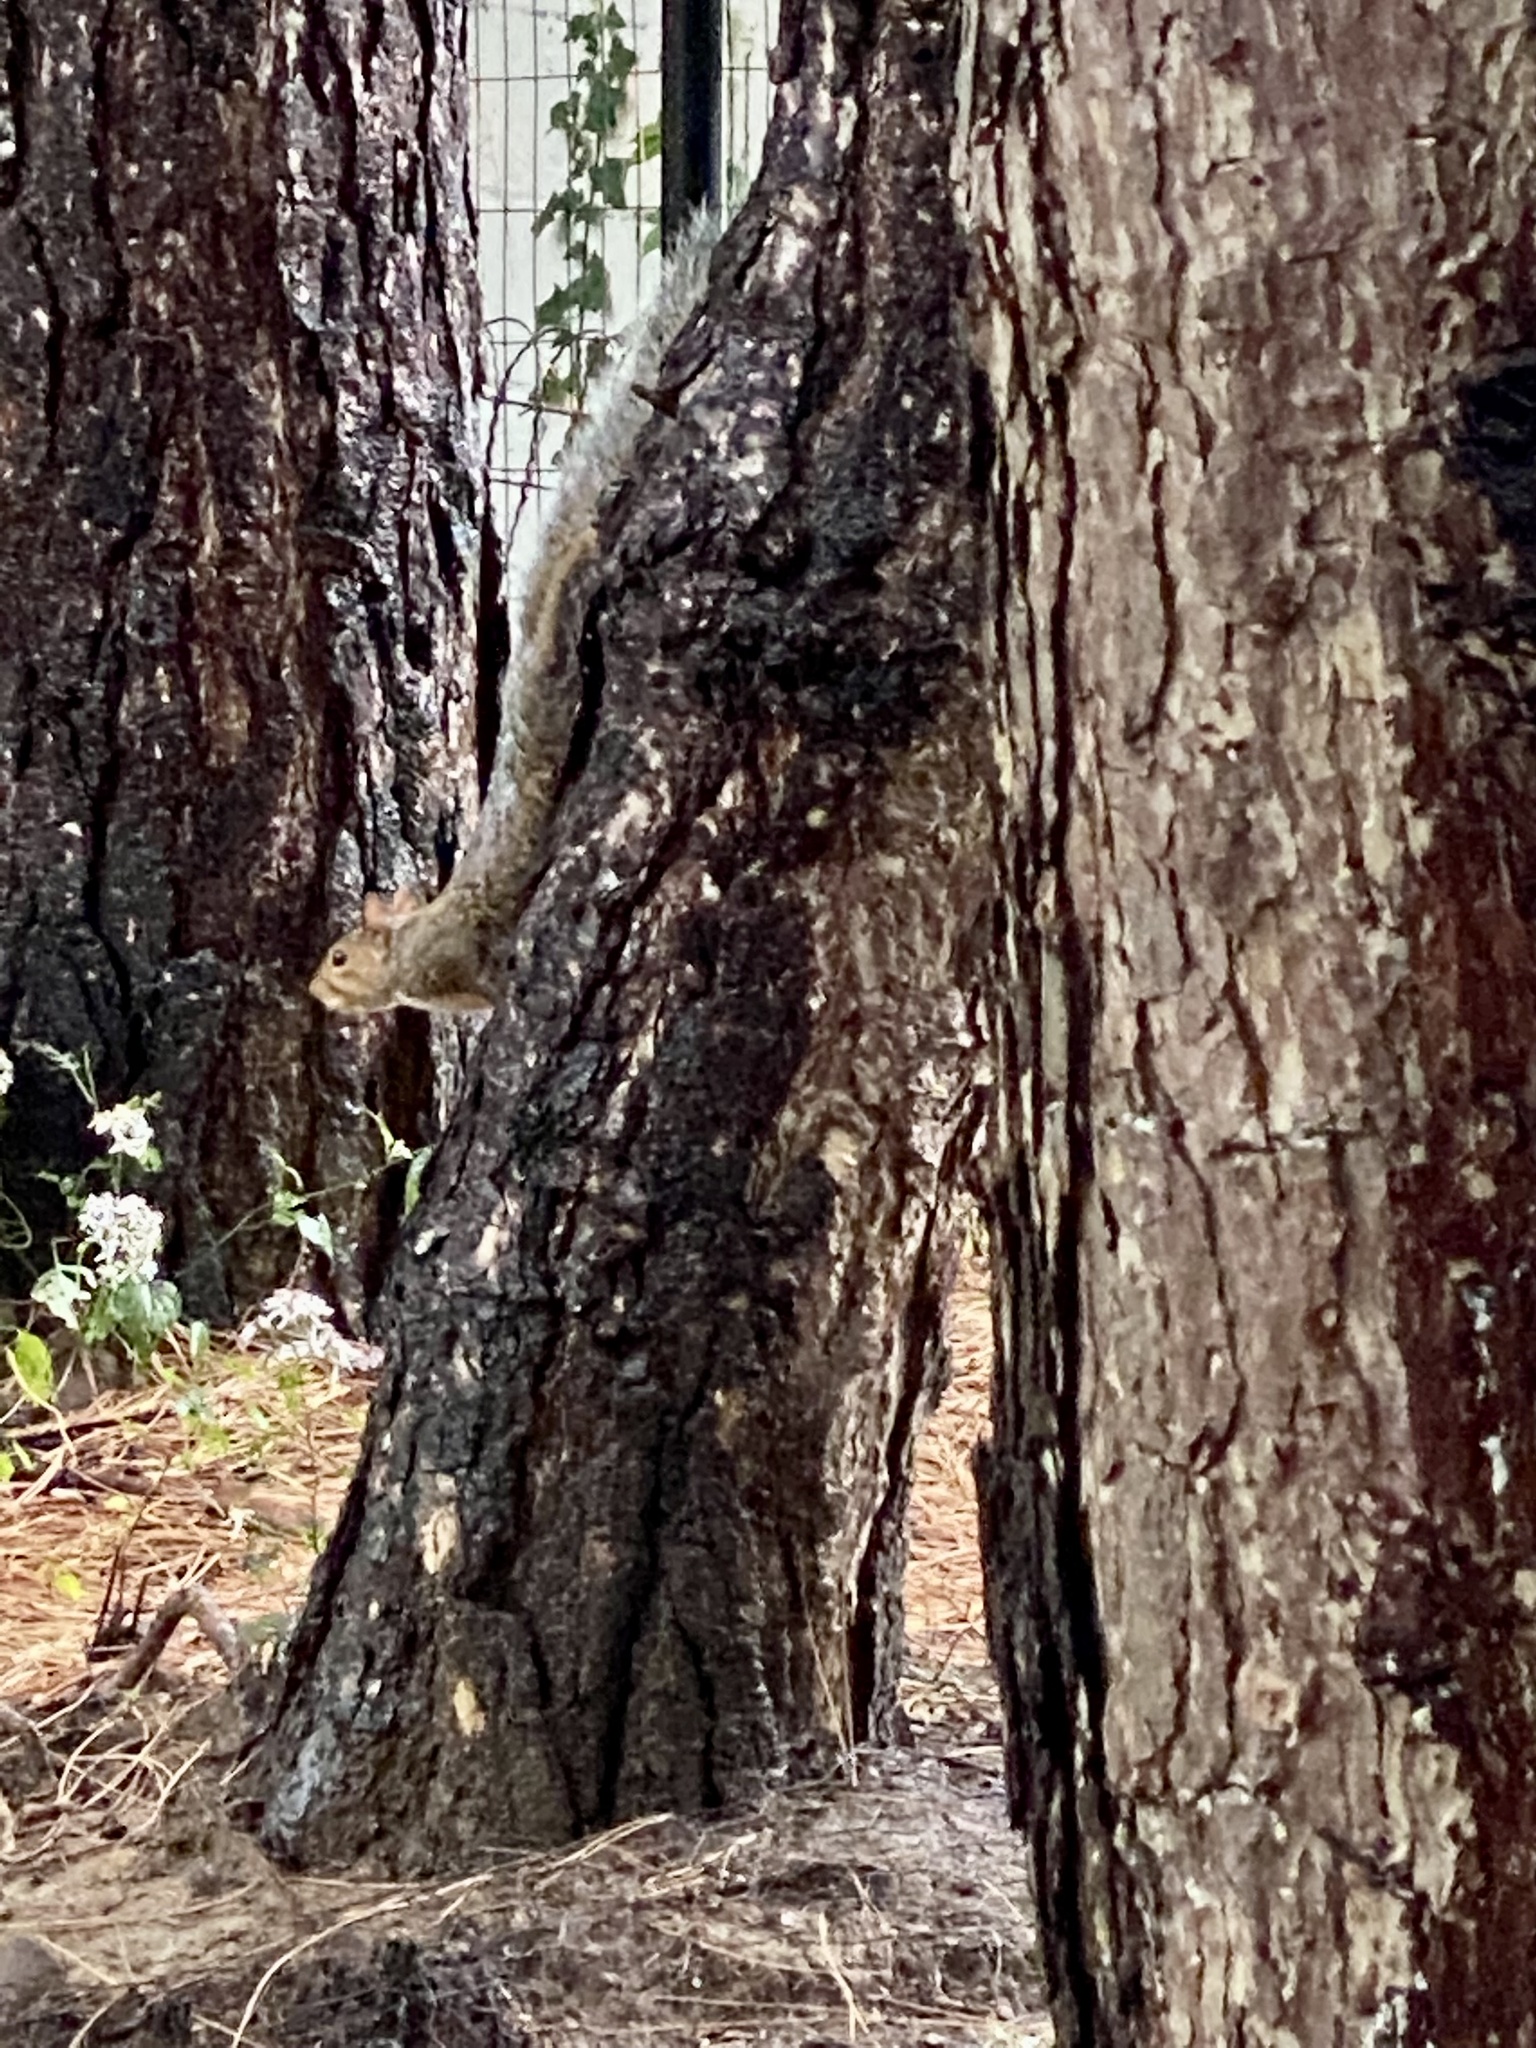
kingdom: Animalia
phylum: Chordata
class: Mammalia
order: Rodentia
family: Sciuridae
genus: Sciurus
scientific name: Sciurus carolinensis
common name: Eastern gray squirrel
